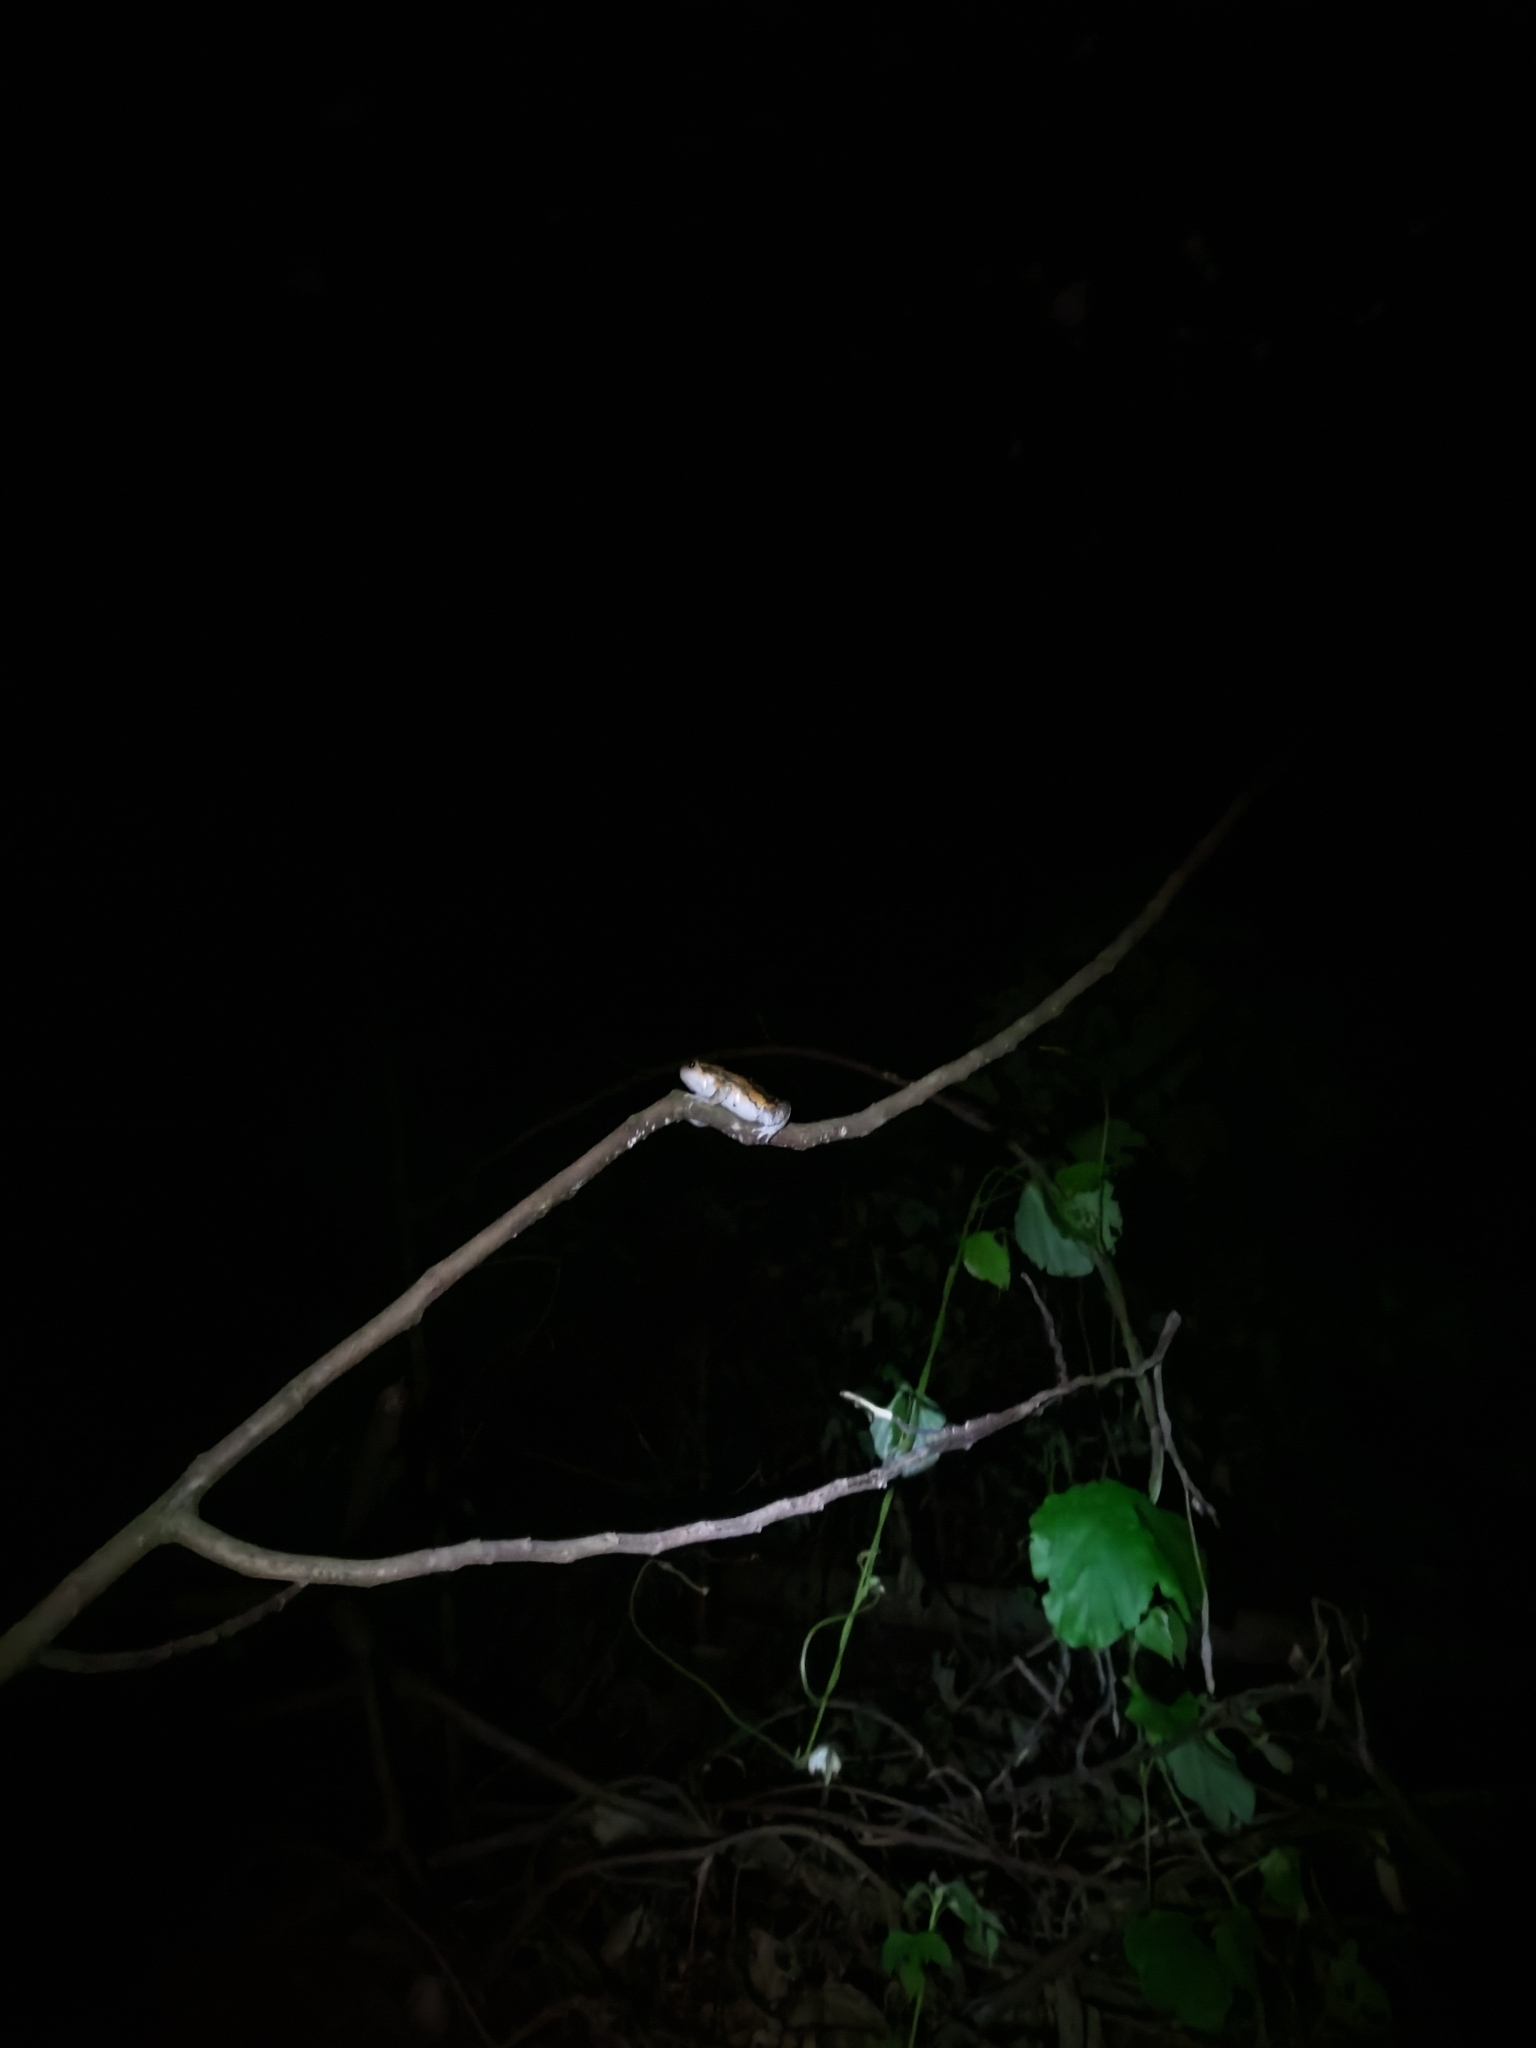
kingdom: Animalia
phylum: Chordata
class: Amphibia
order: Anura
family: Microhylidae
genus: Kaloula
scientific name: Kaloula pulchra
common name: Common,banded bullfrog
